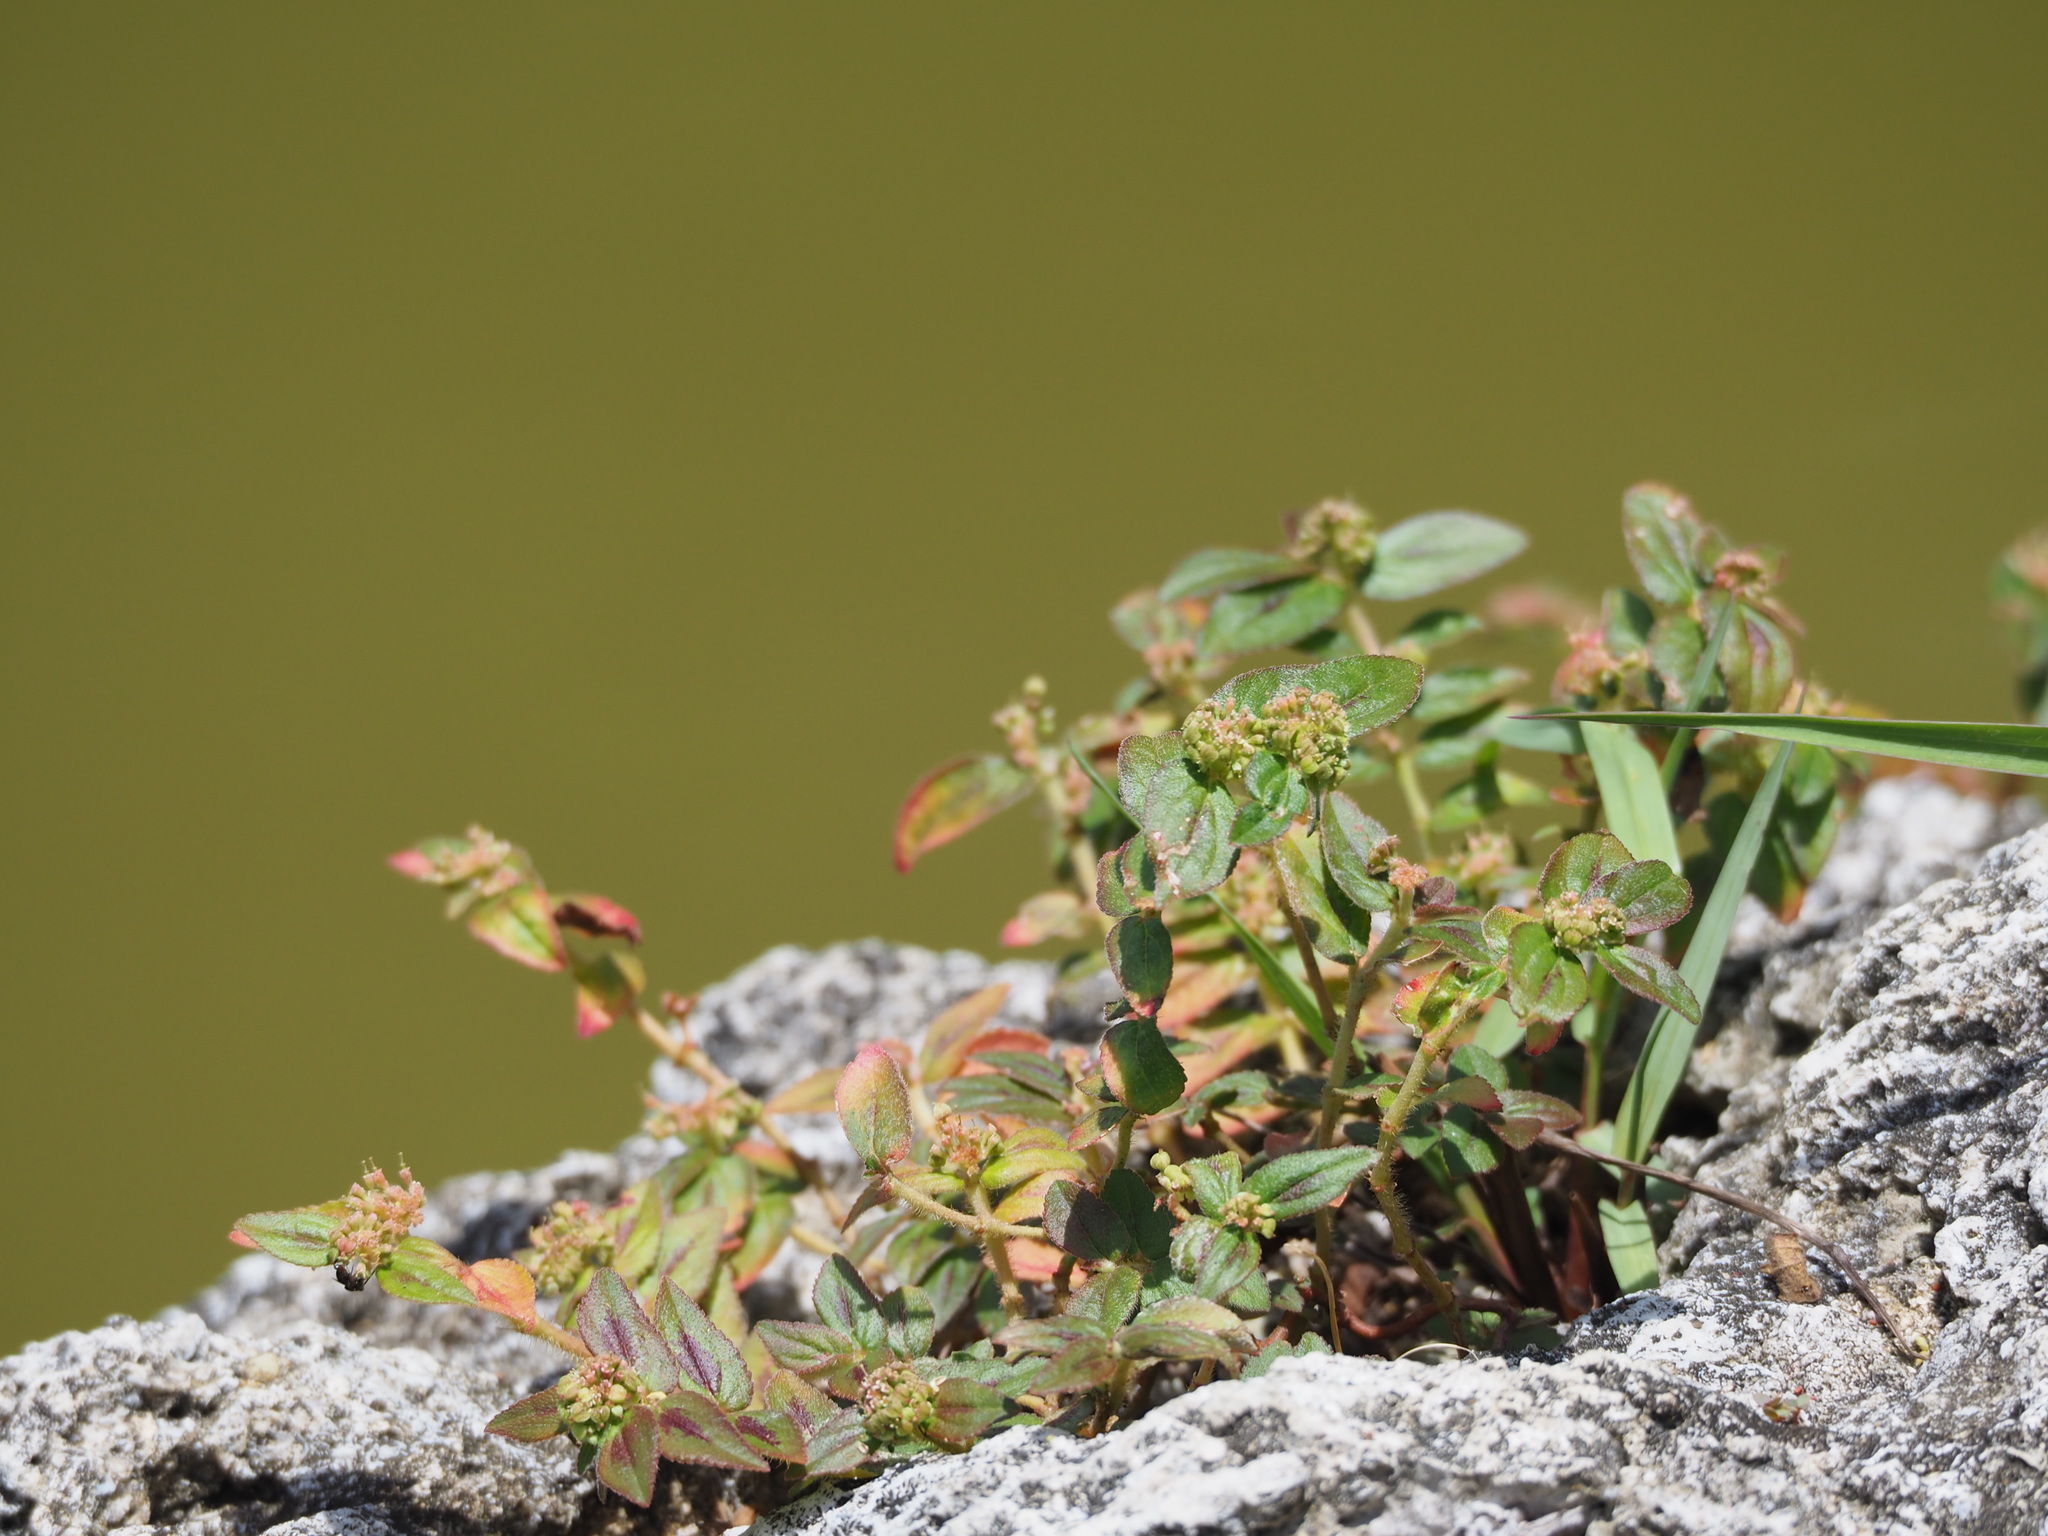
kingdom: Plantae
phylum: Tracheophyta
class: Magnoliopsida
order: Malpighiales
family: Euphorbiaceae
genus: Euphorbia
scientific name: Euphorbia hirta
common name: Pillpod sandmat
